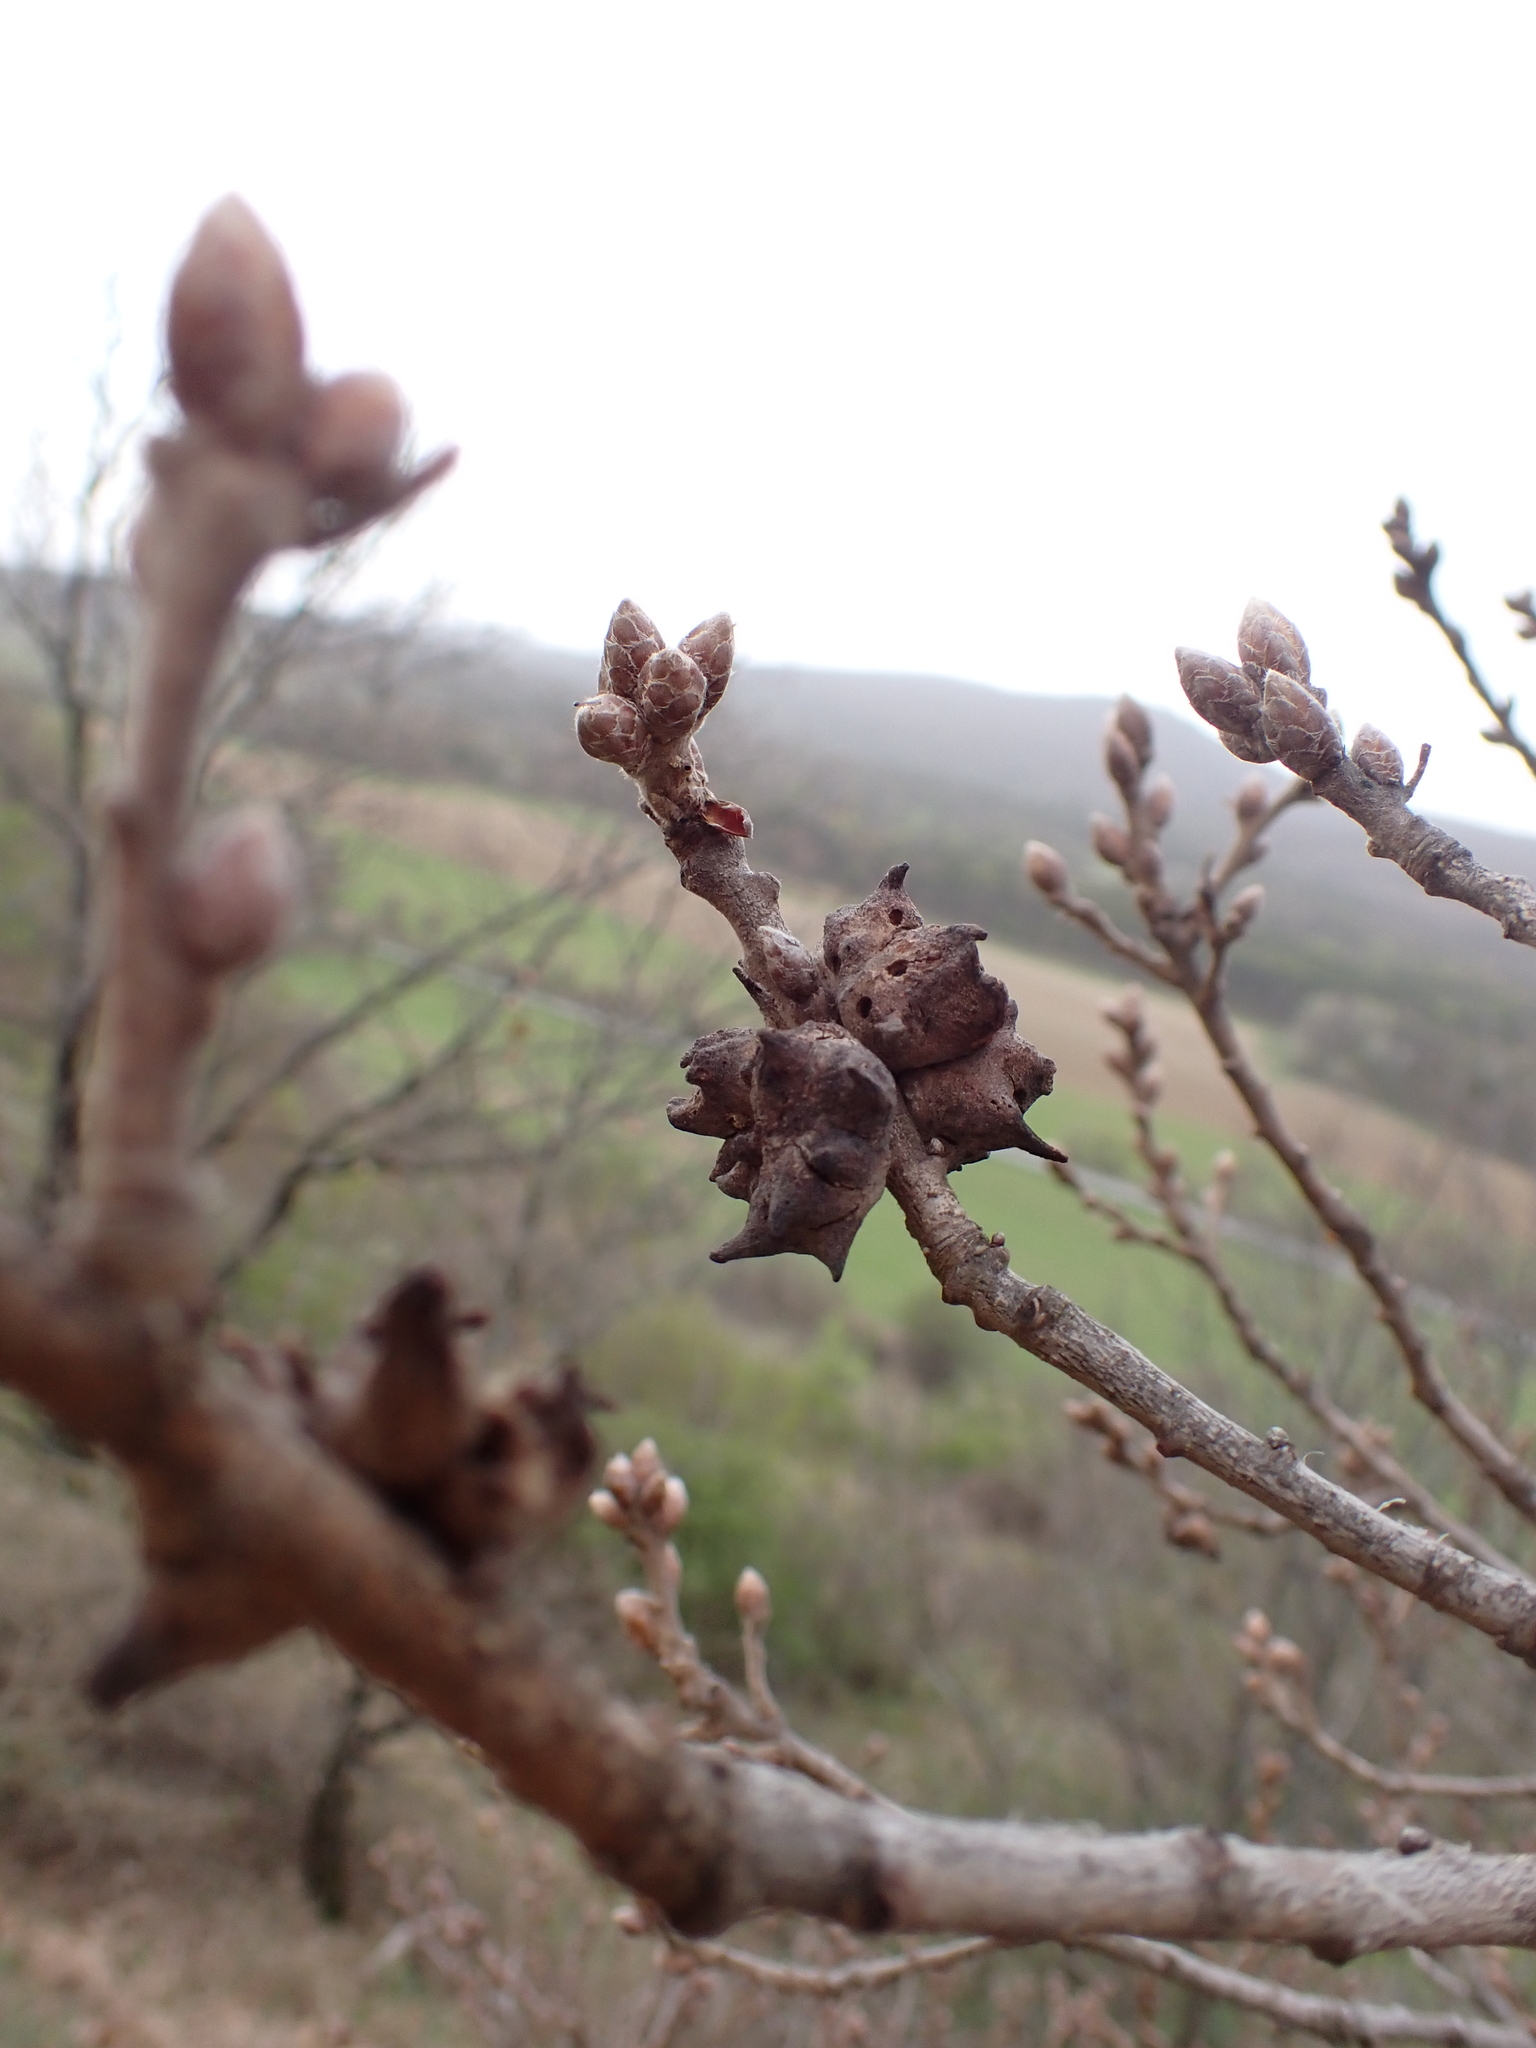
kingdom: Animalia
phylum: Arthropoda
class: Insecta
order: Hymenoptera
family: Cynipidae
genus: Andricus
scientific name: Andricus coriarius
